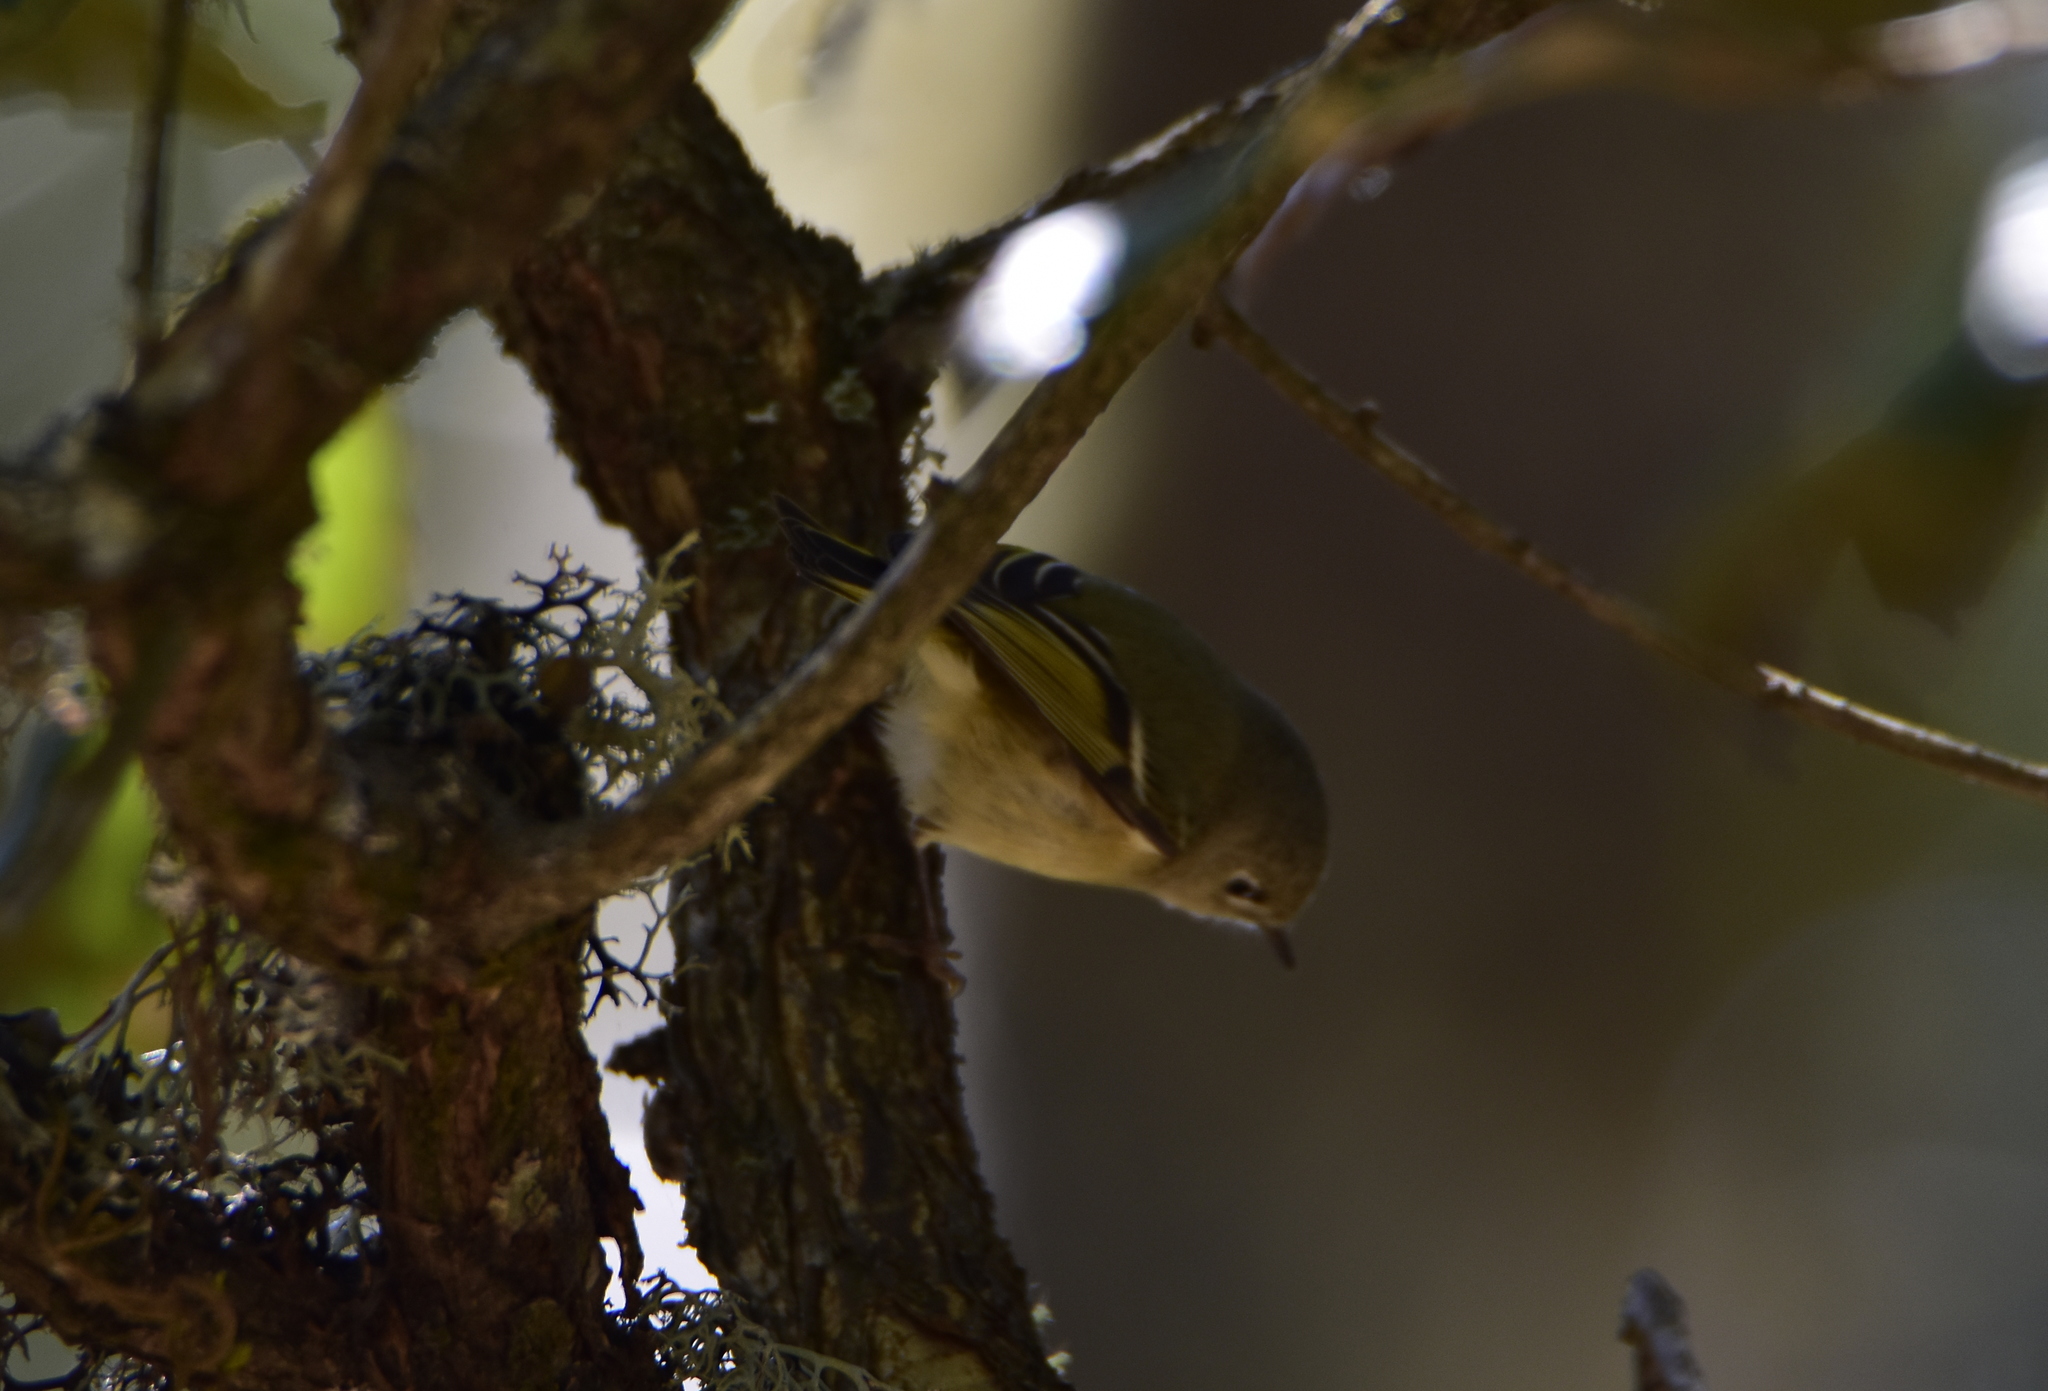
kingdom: Animalia
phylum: Chordata
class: Aves
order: Passeriformes
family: Regulidae
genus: Regulus
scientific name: Regulus calendula
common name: Ruby-crowned kinglet
